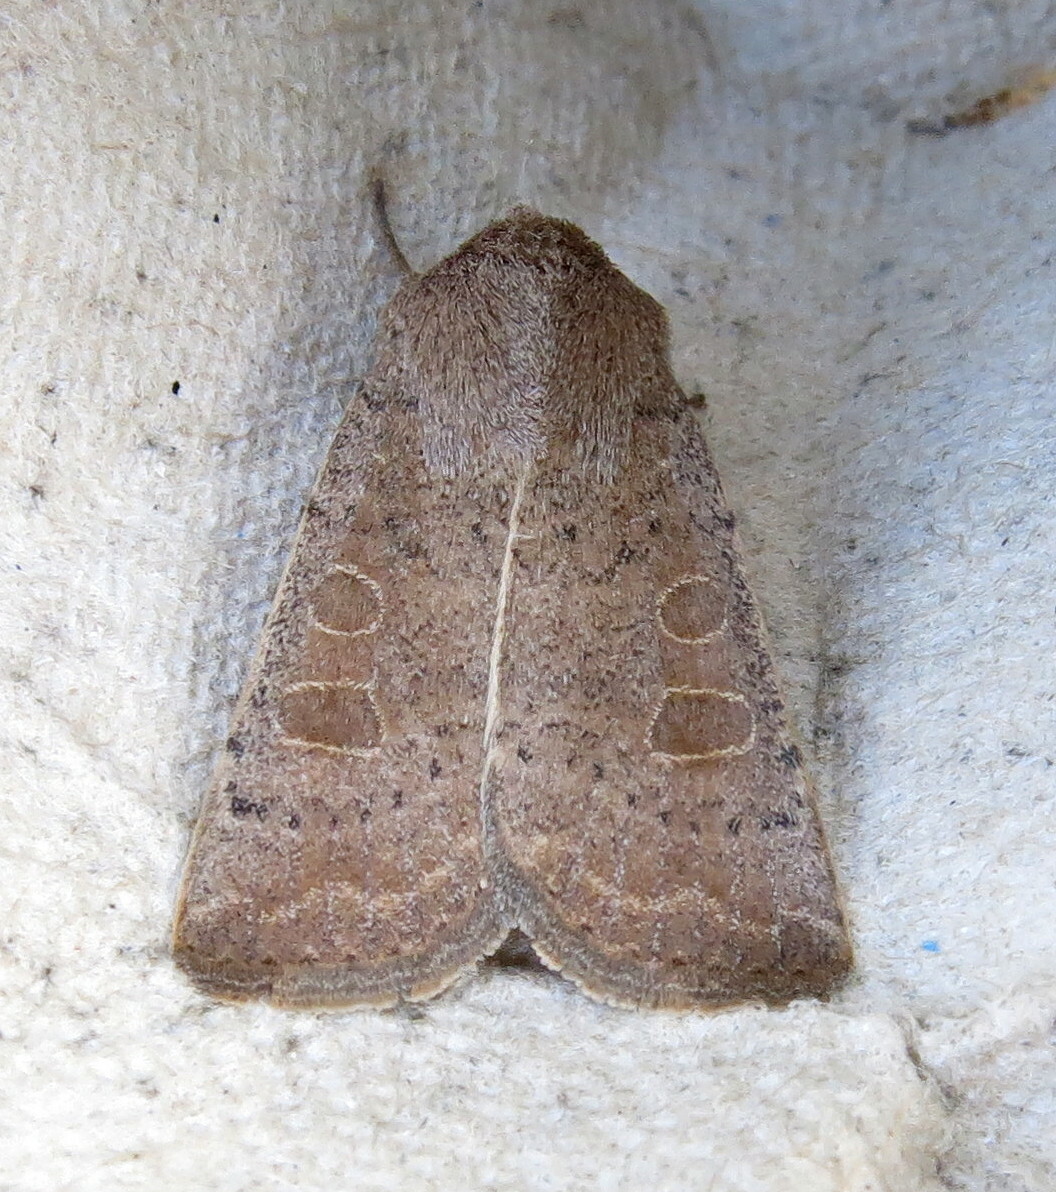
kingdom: Animalia
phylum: Arthropoda
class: Insecta
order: Lepidoptera
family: Noctuidae
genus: Hoplodrina
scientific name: Hoplodrina ambigua
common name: Vine's rustic
